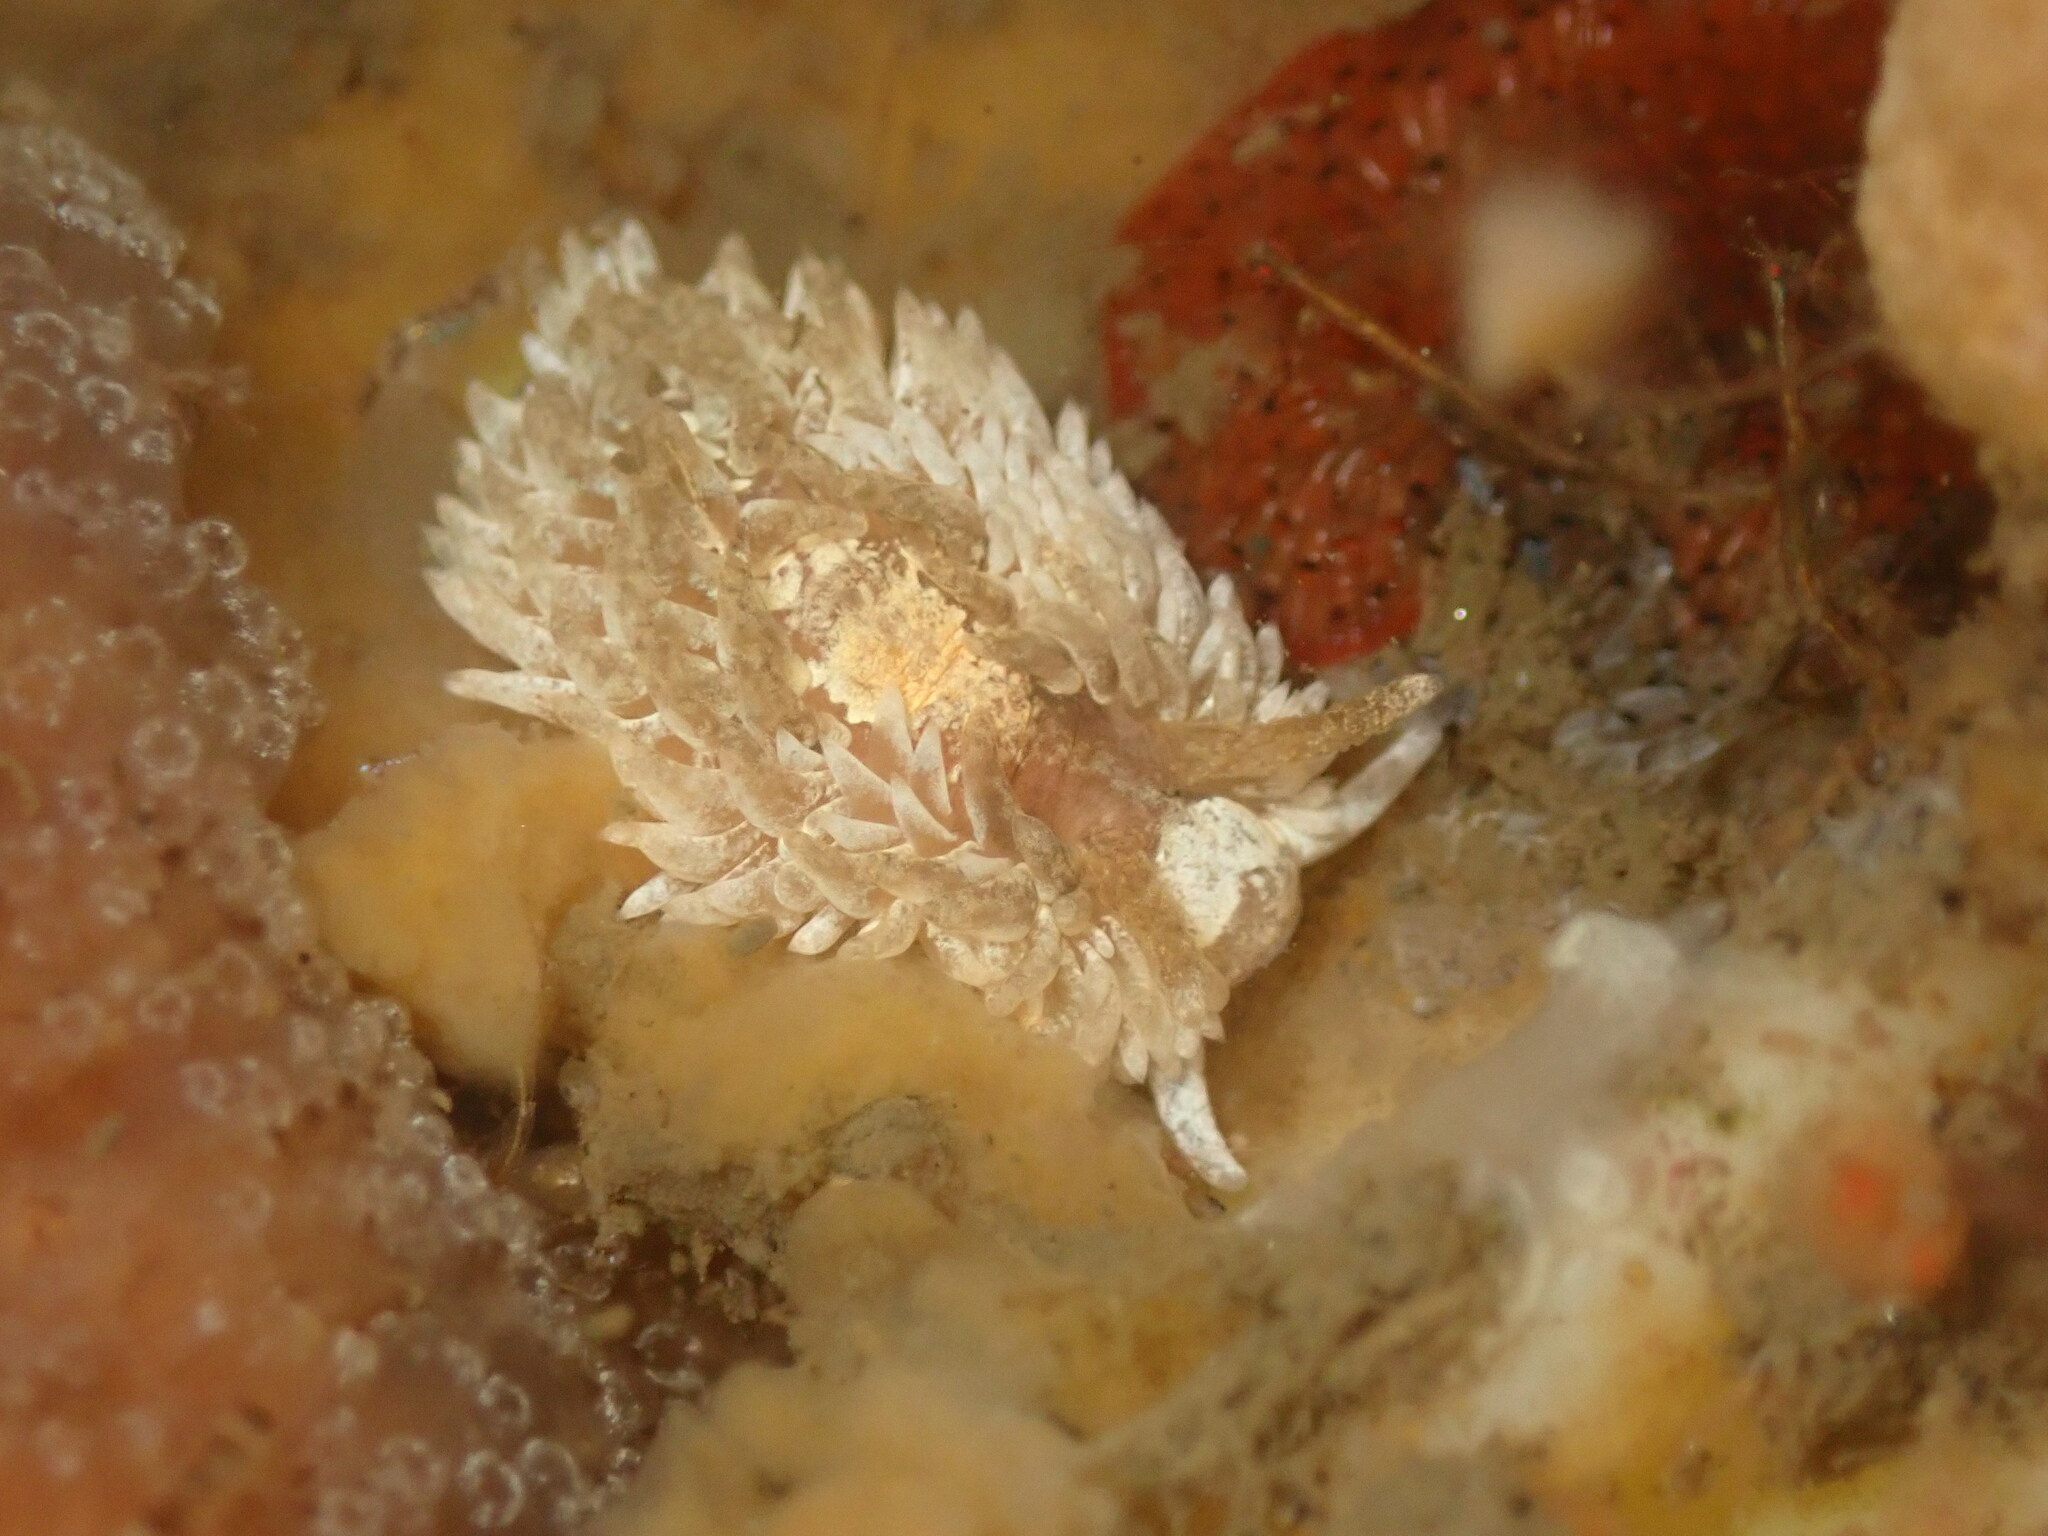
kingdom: Animalia
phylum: Mollusca
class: Gastropoda
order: Nudibranchia
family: Aeolidiidae
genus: Aeolidia
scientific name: Aeolidia loui
